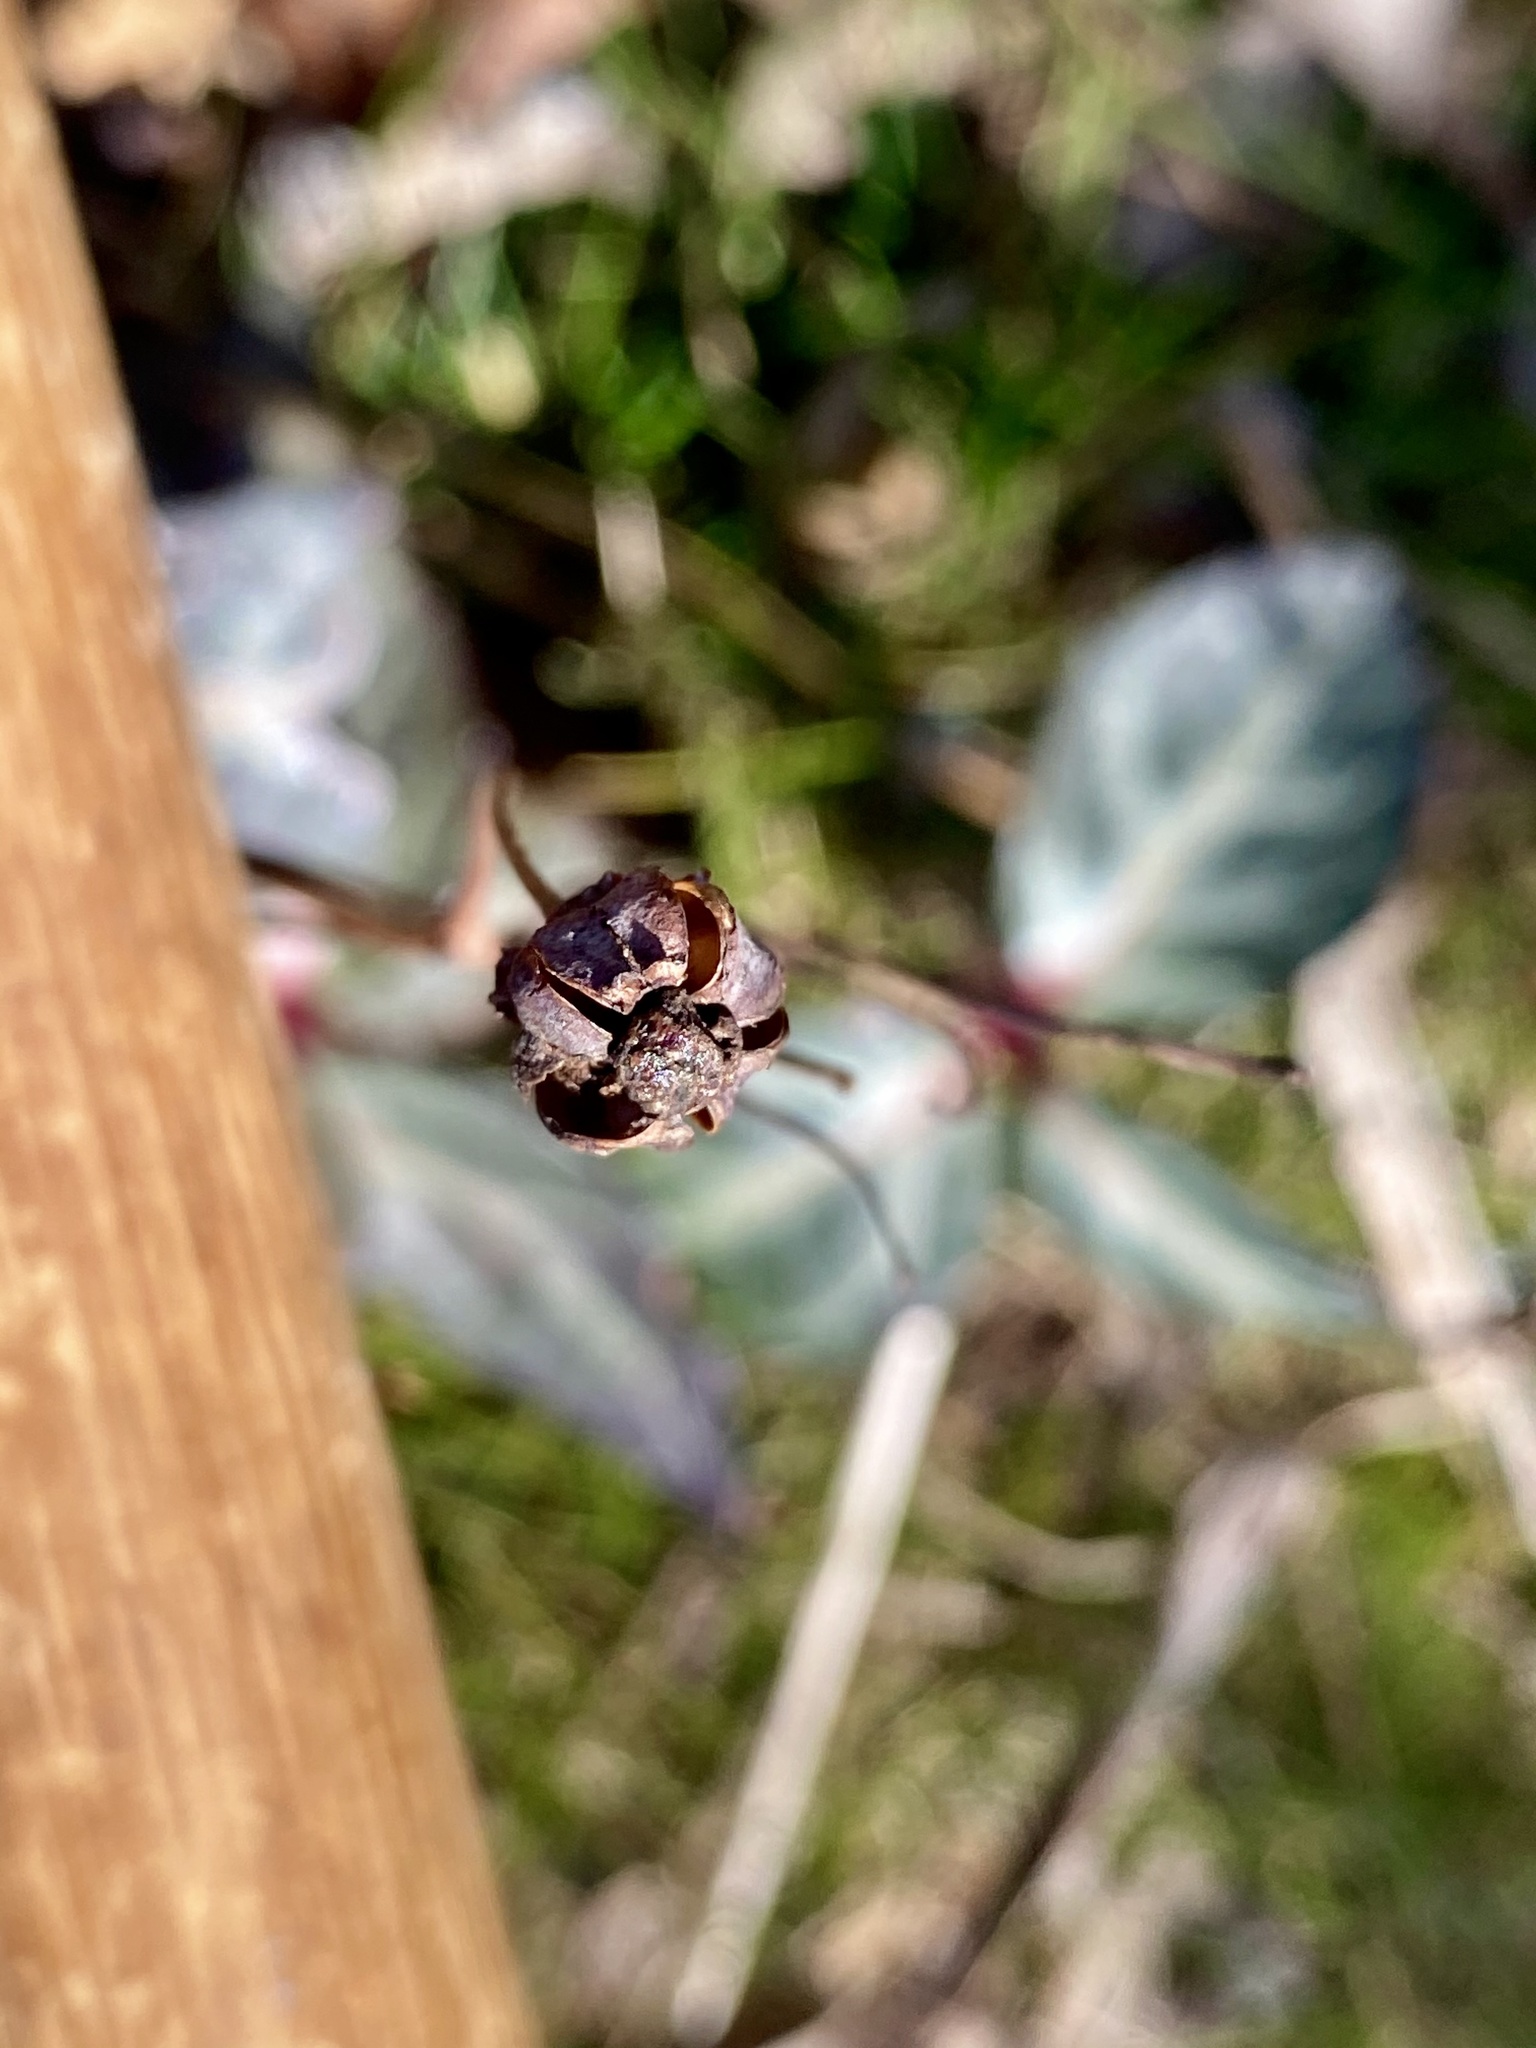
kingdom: Plantae
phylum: Tracheophyta
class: Magnoliopsida
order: Ericales
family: Ericaceae
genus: Chimaphila
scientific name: Chimaphila maculata
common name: Spotted pipsissewa
